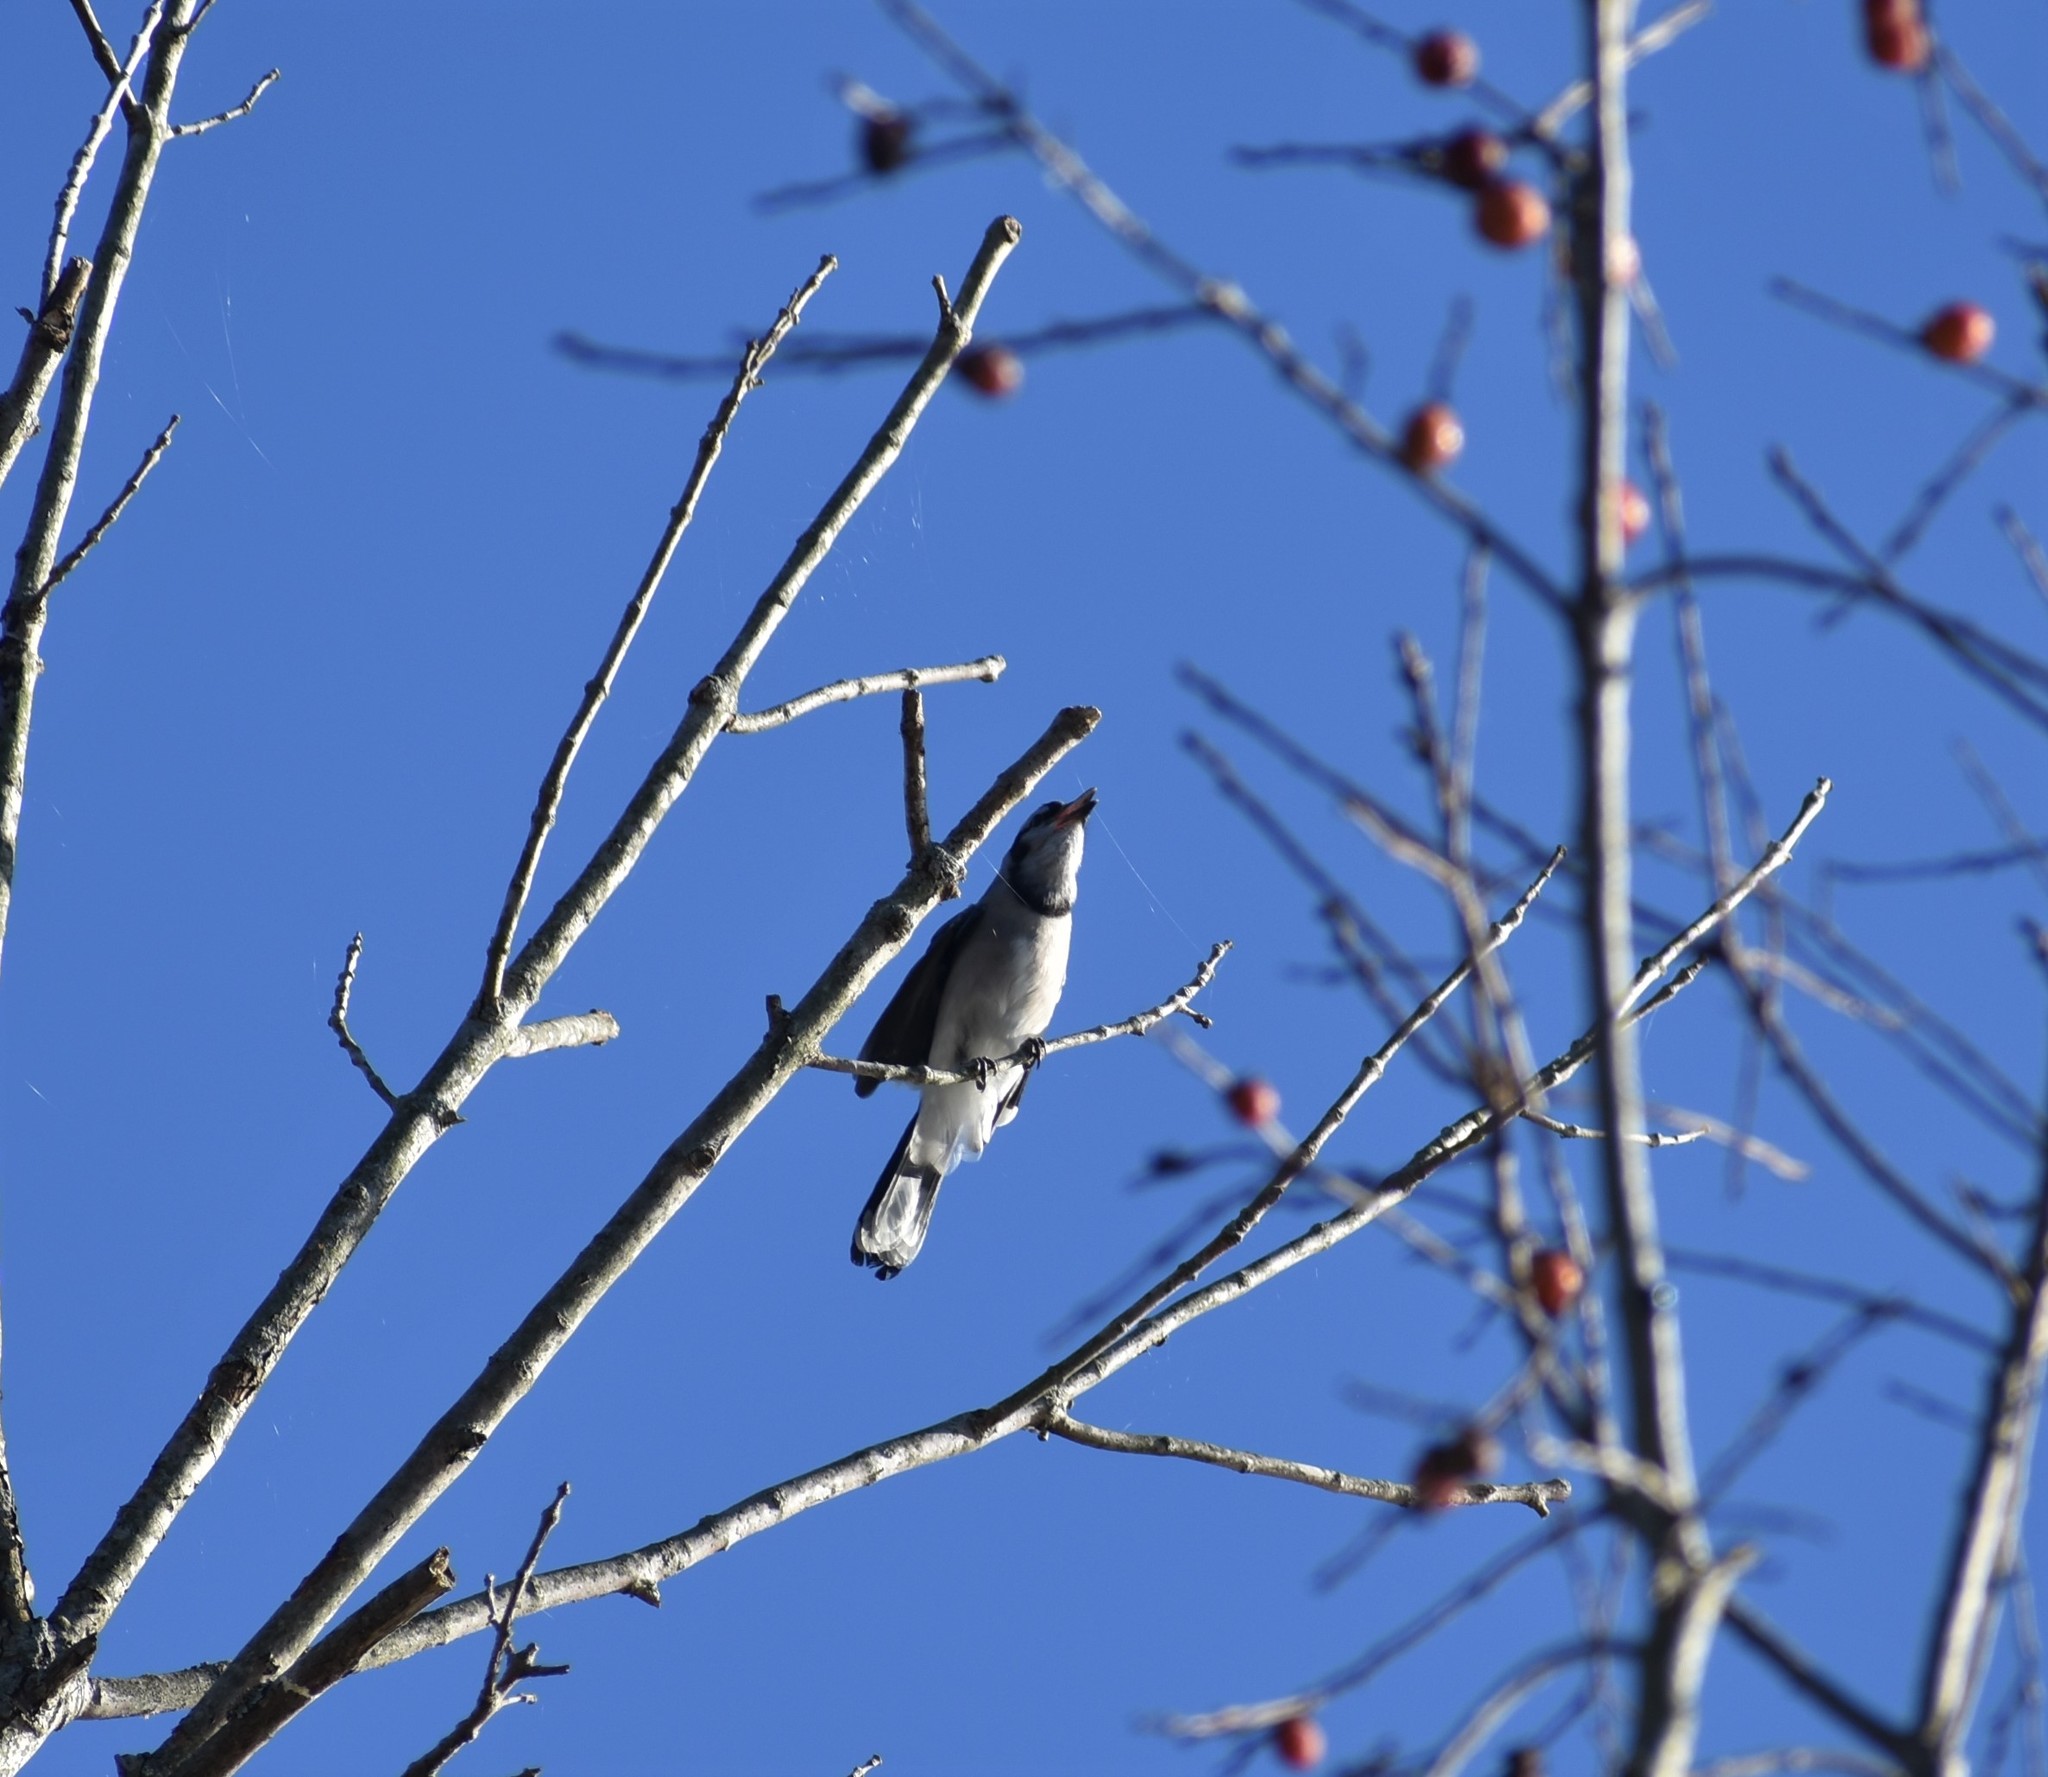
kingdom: Animalia
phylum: Chordata
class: Aves
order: Passeriformes
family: Corvidae
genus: Cyanocitta
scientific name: Cyanocitta cristata
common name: Blue jay
